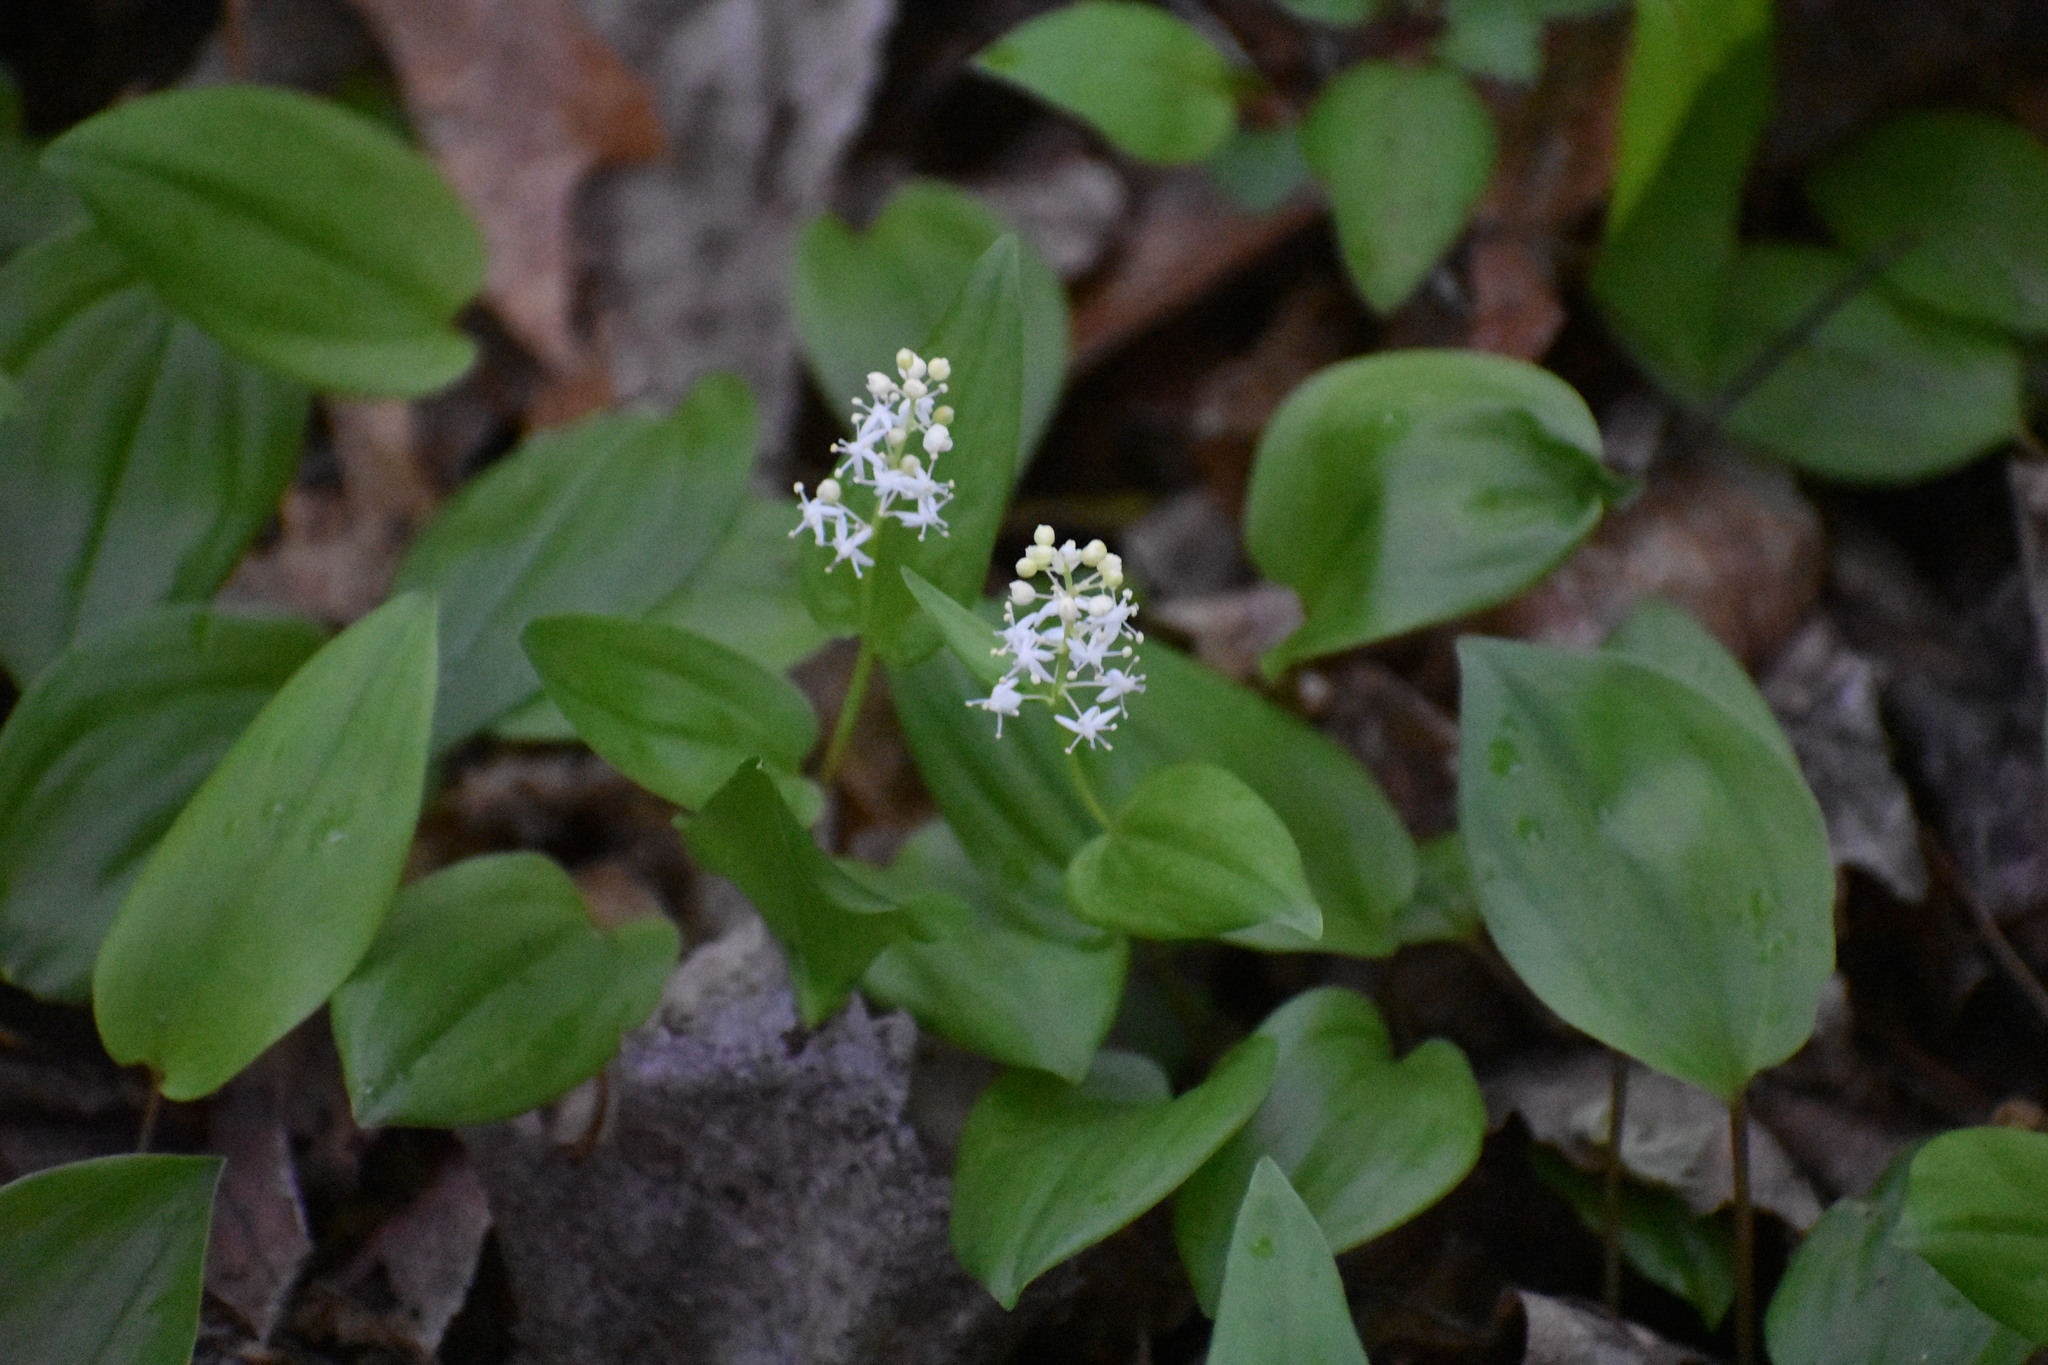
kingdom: Plantae
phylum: Tracheophyta
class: Liliopsida
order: Asparagales
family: Asparagaceae
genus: Maianthemum
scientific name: Maianthemum canadense
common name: False lily-of-the-valley
